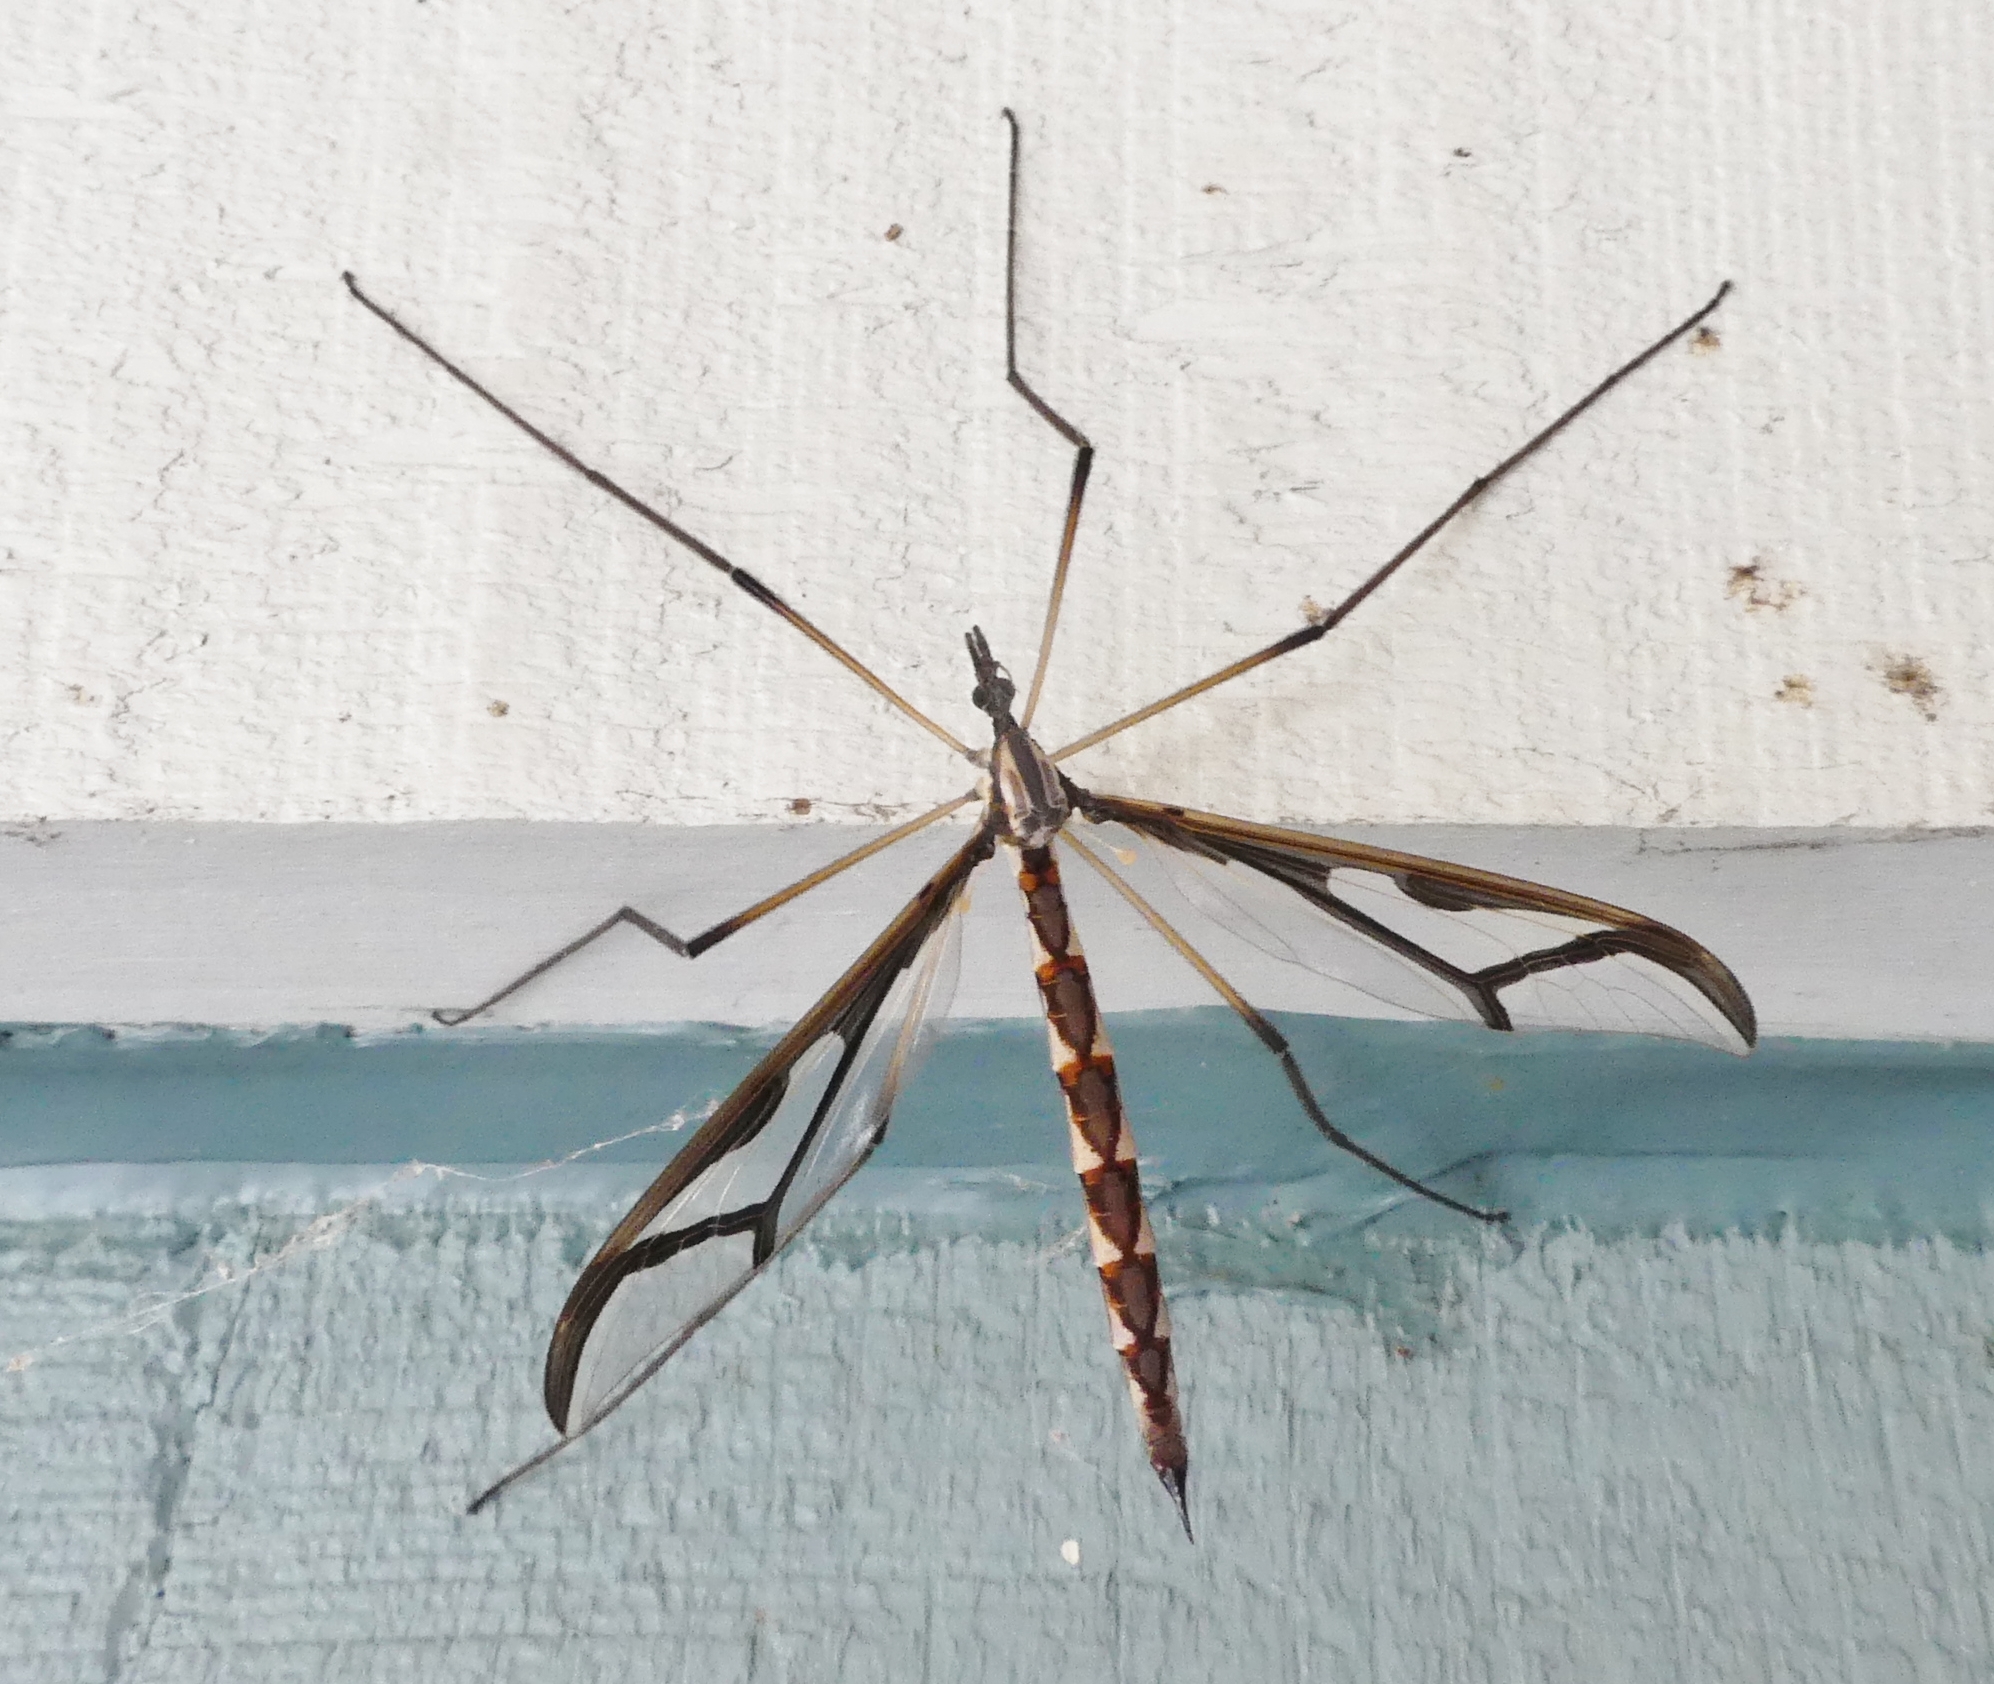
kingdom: Animalia
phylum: Arthropoda
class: Insecta
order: Diptera
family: Pediciidae
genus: Pedicia
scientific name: Pedicia albivitta
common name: Giant eastern crane fly
